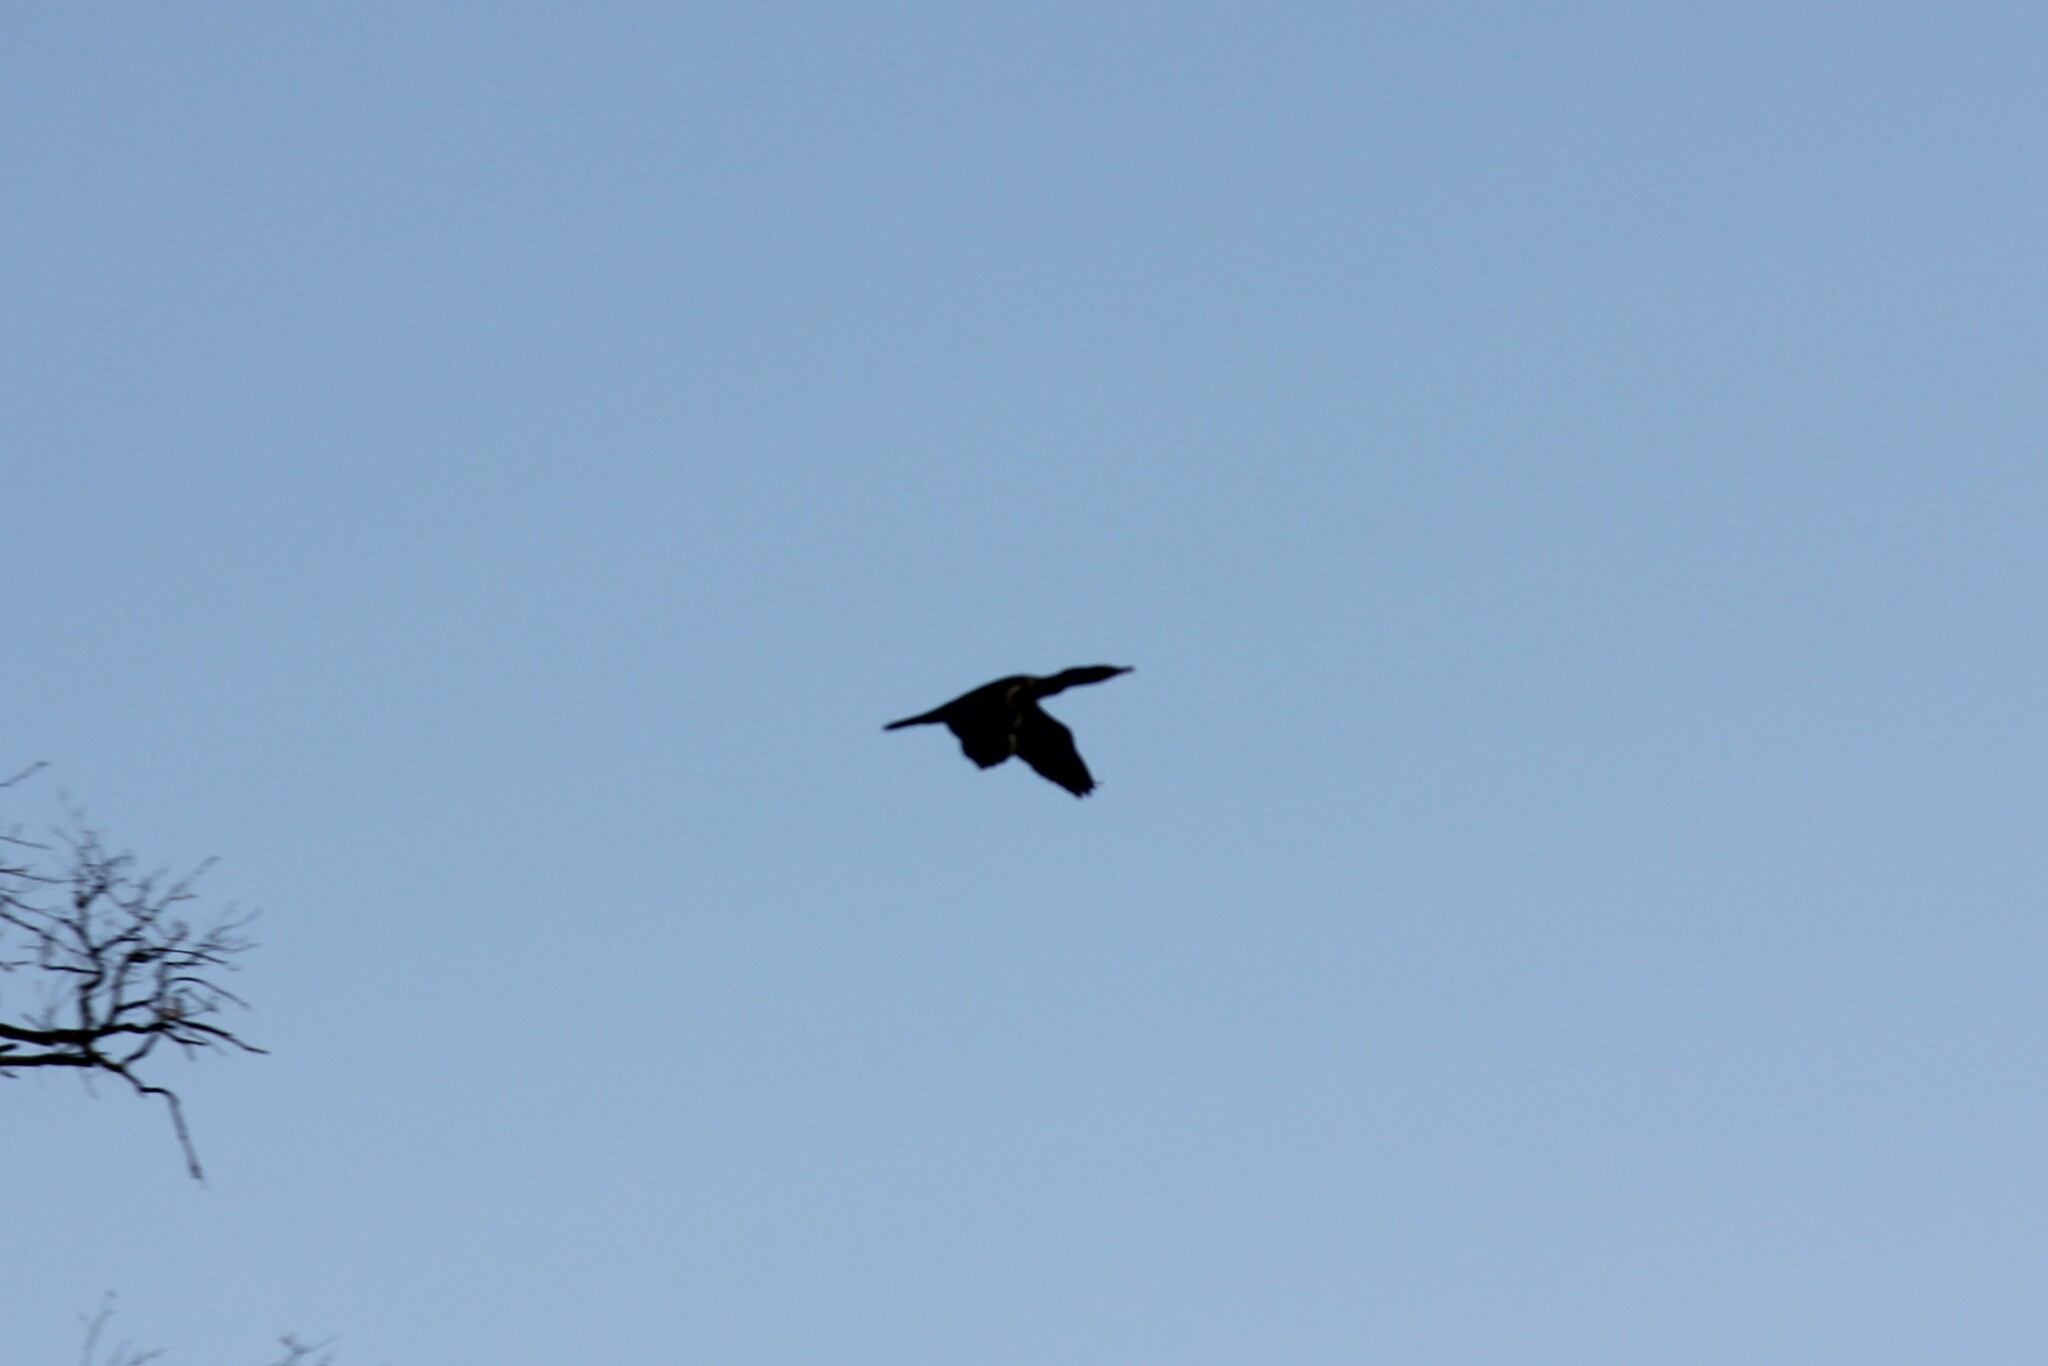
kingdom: Animalia
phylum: Chordata
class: Aves
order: Suliformes
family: Phalacrocoracidae
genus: Phalacrocorax
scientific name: Phalacrocorax auritus
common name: Double-crested cormorant
